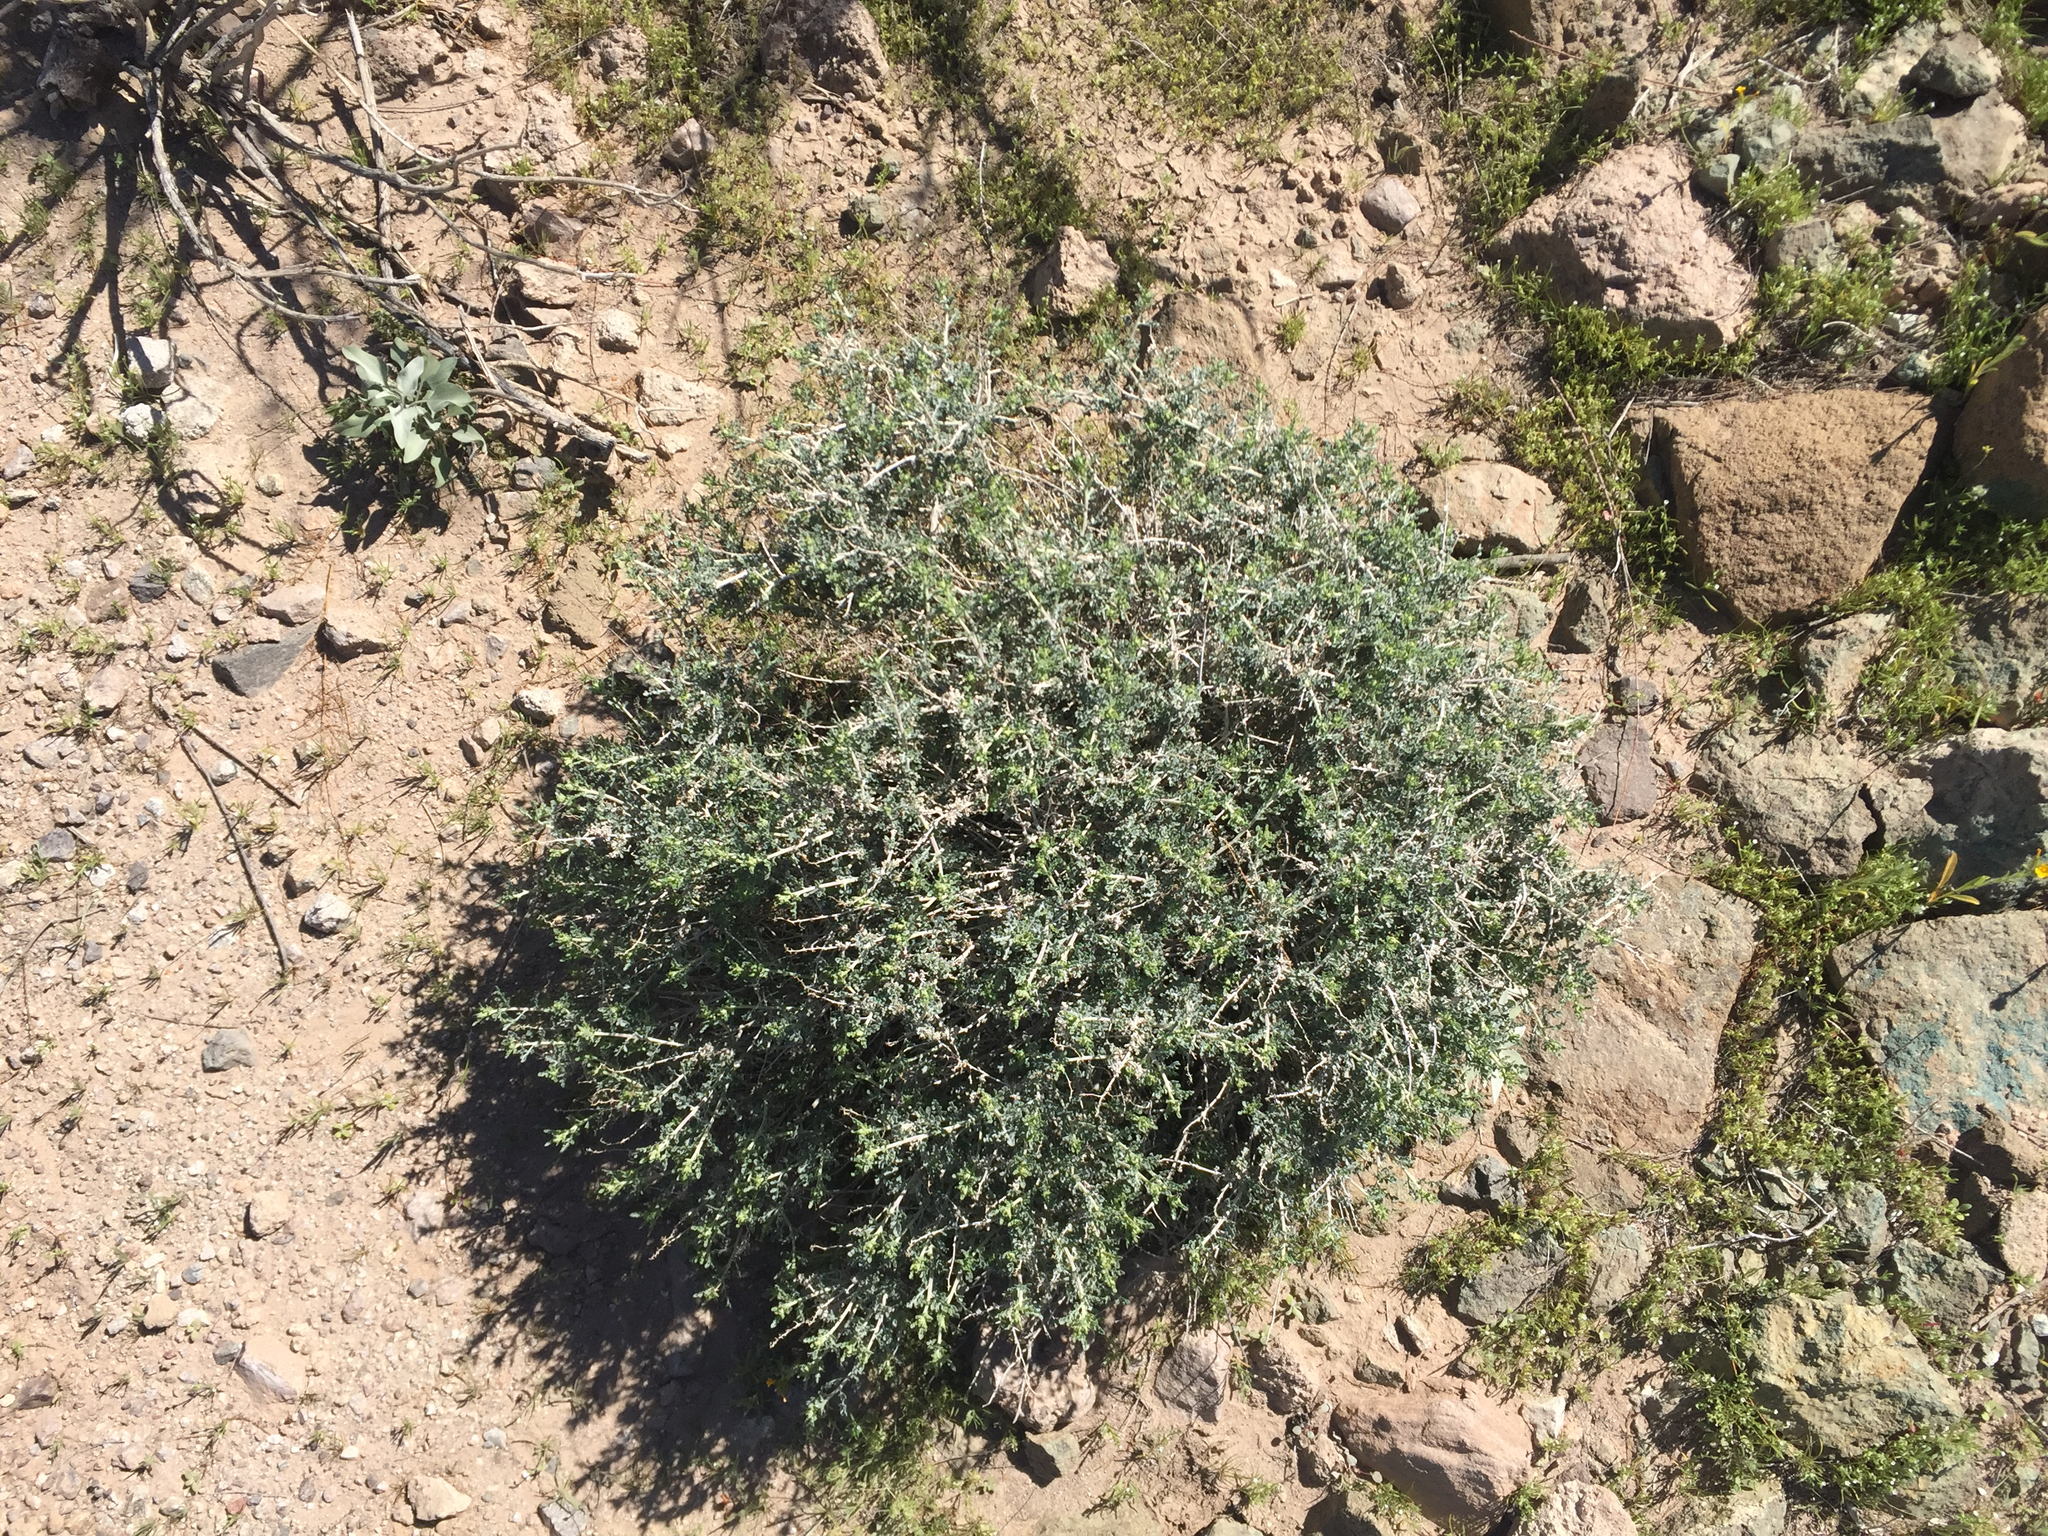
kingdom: Plantae
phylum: Tracheophyta
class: Magnoliopsida
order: Asterales
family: Asteraceae
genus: Ambrosia
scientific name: Ambrosia dumosa
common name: Bur-sage
